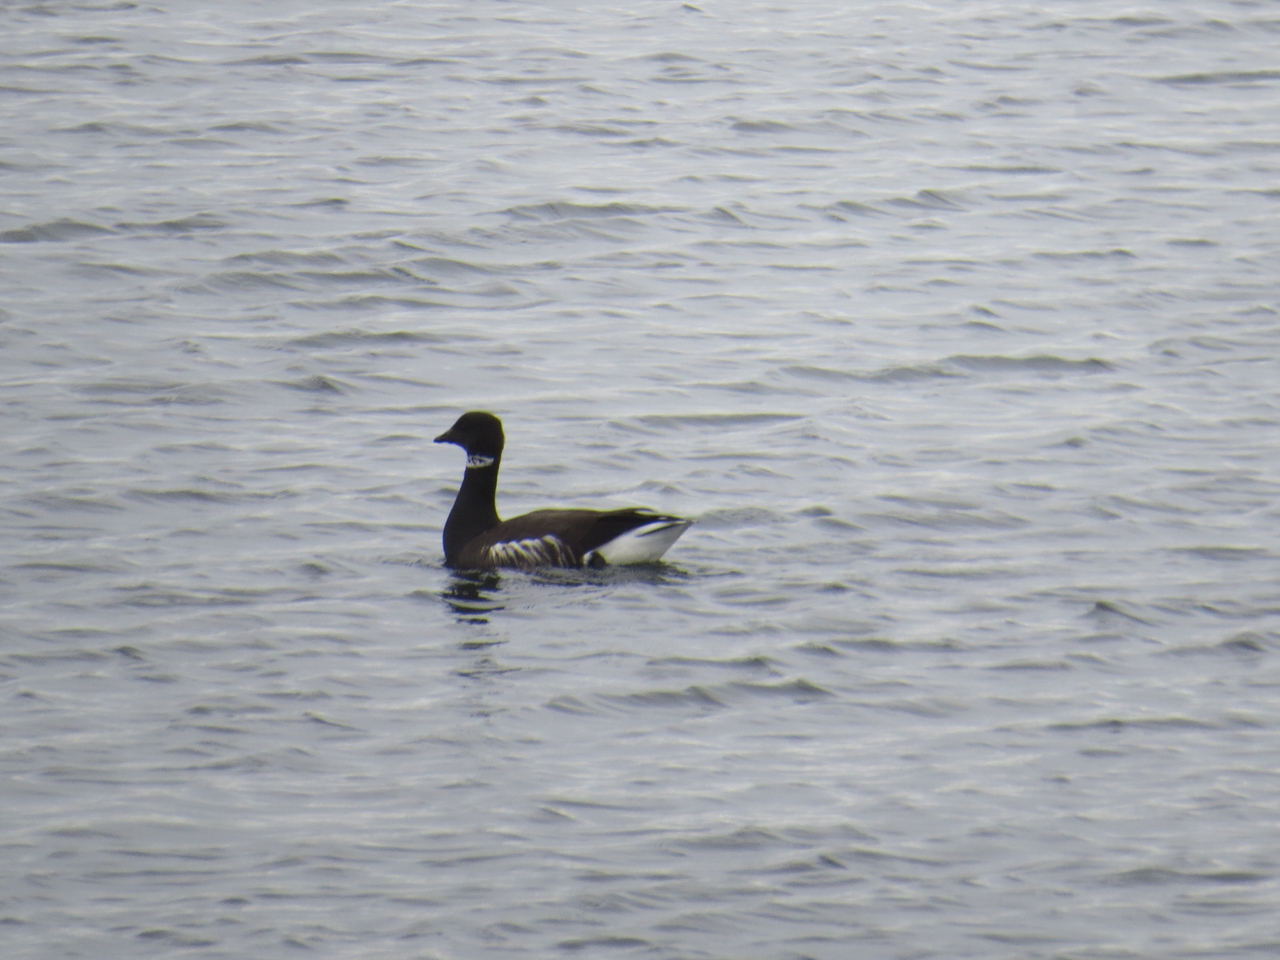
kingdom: Animalia
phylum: Chordata
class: Aves
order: Anseriformes
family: Anatidae
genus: Branta
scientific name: Branta bernicla
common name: Brant goose
